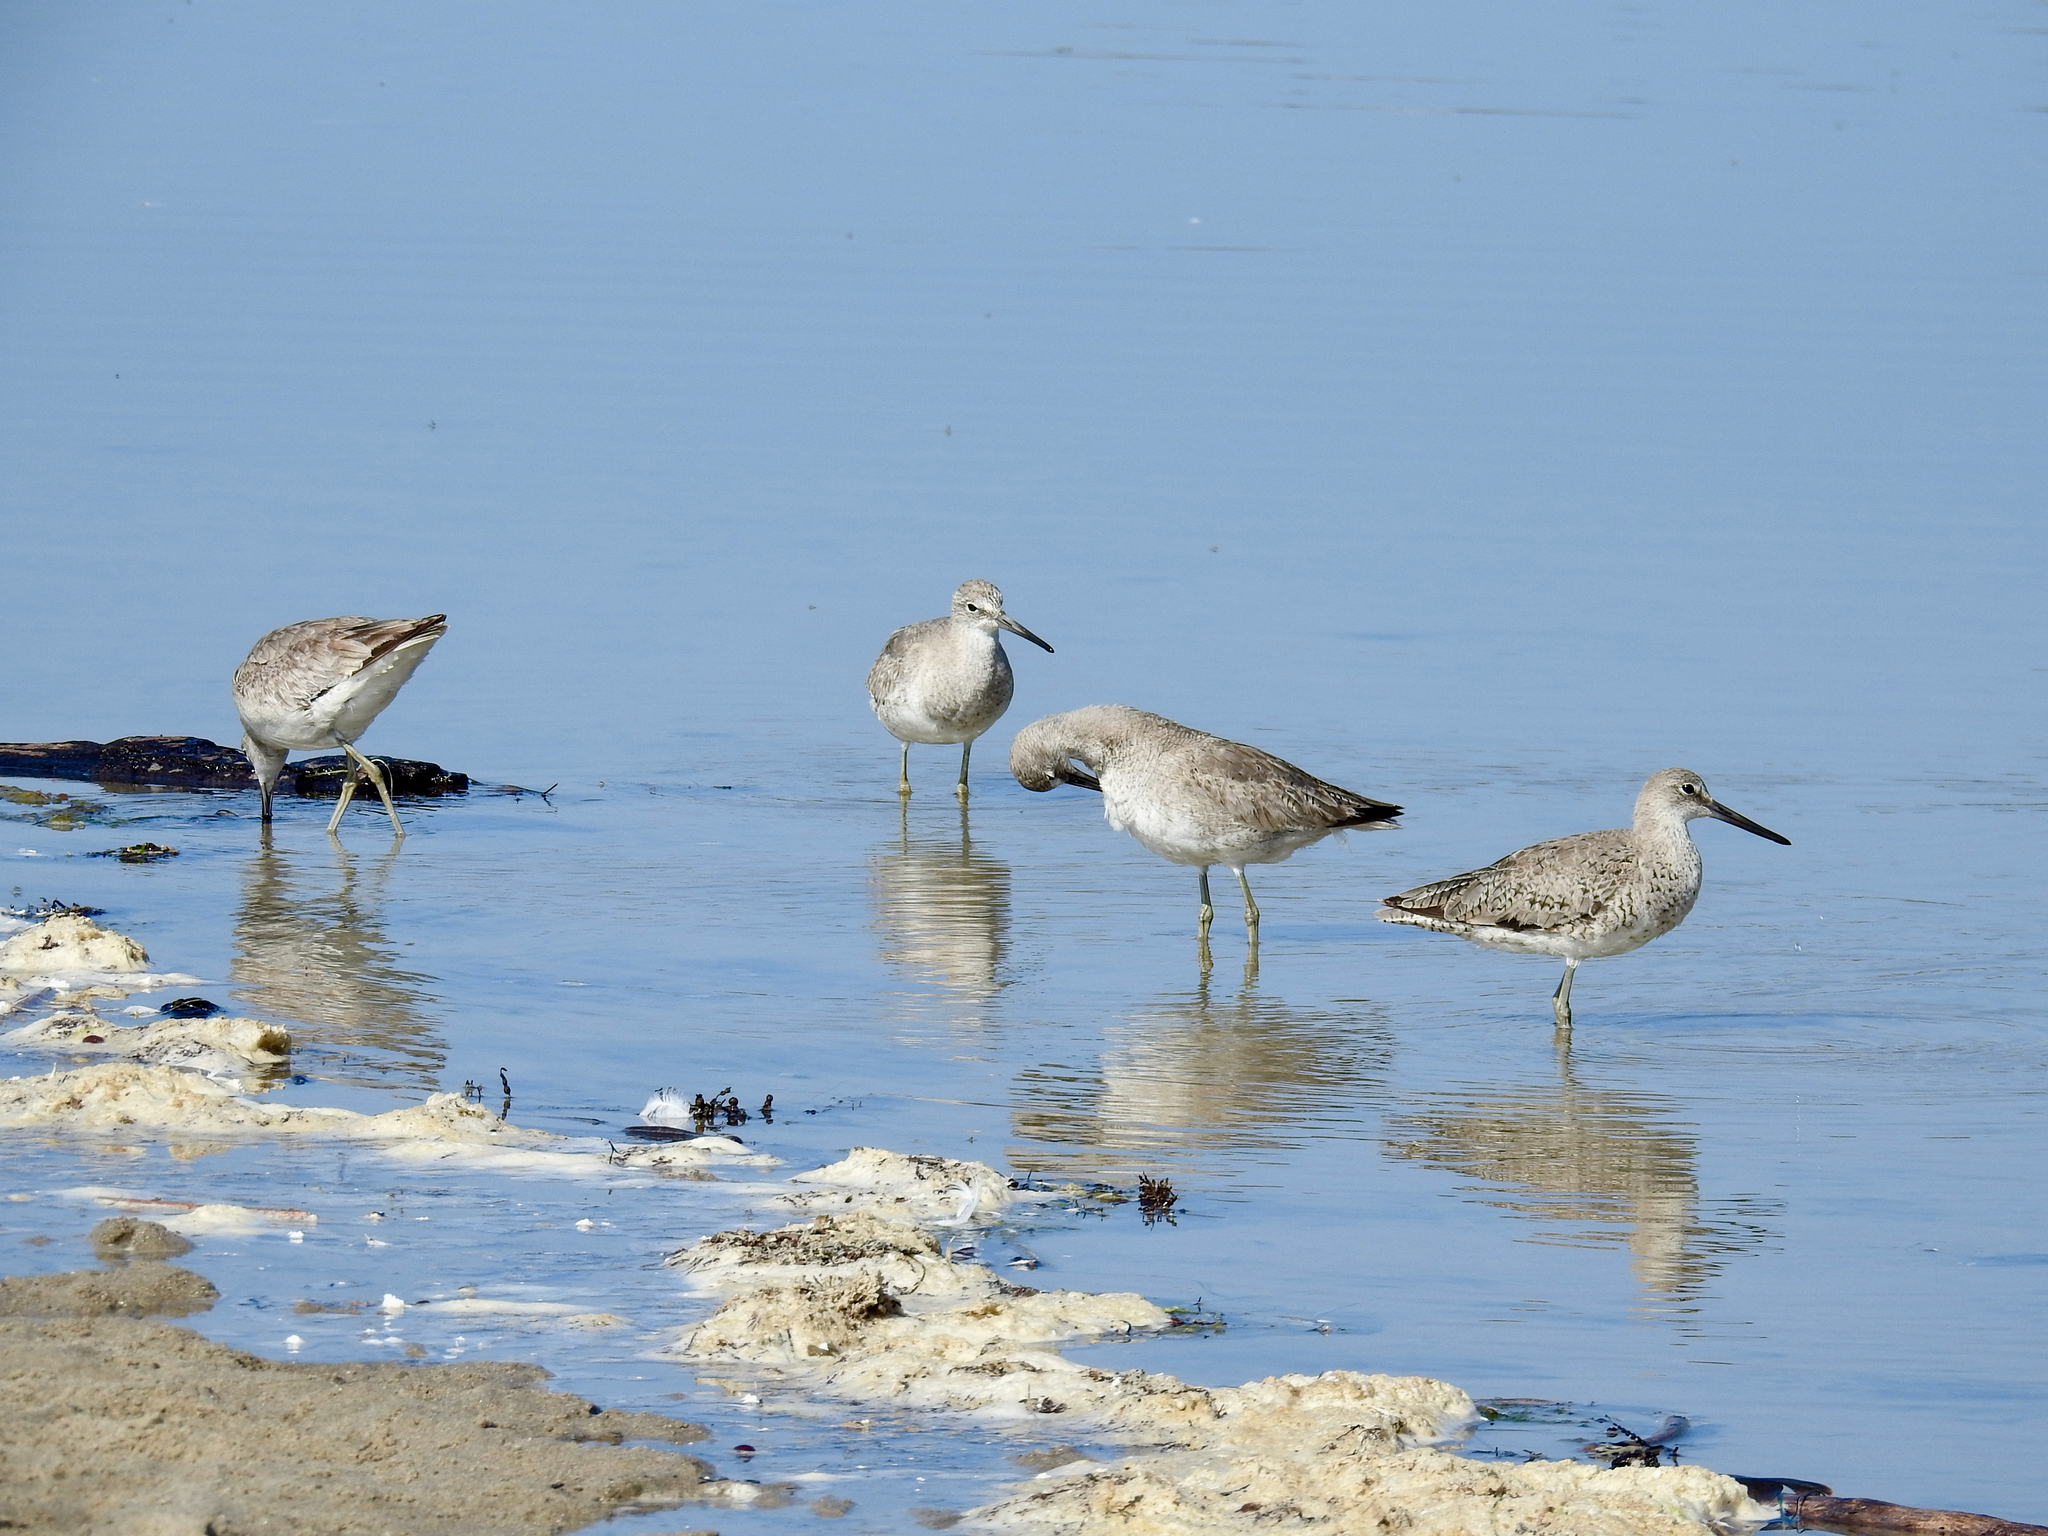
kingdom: Animalia
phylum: Chordata
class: Aves
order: Charadriiformes
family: Scolopacidae
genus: Tringa
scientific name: Tringa semipalmata
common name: Willet
